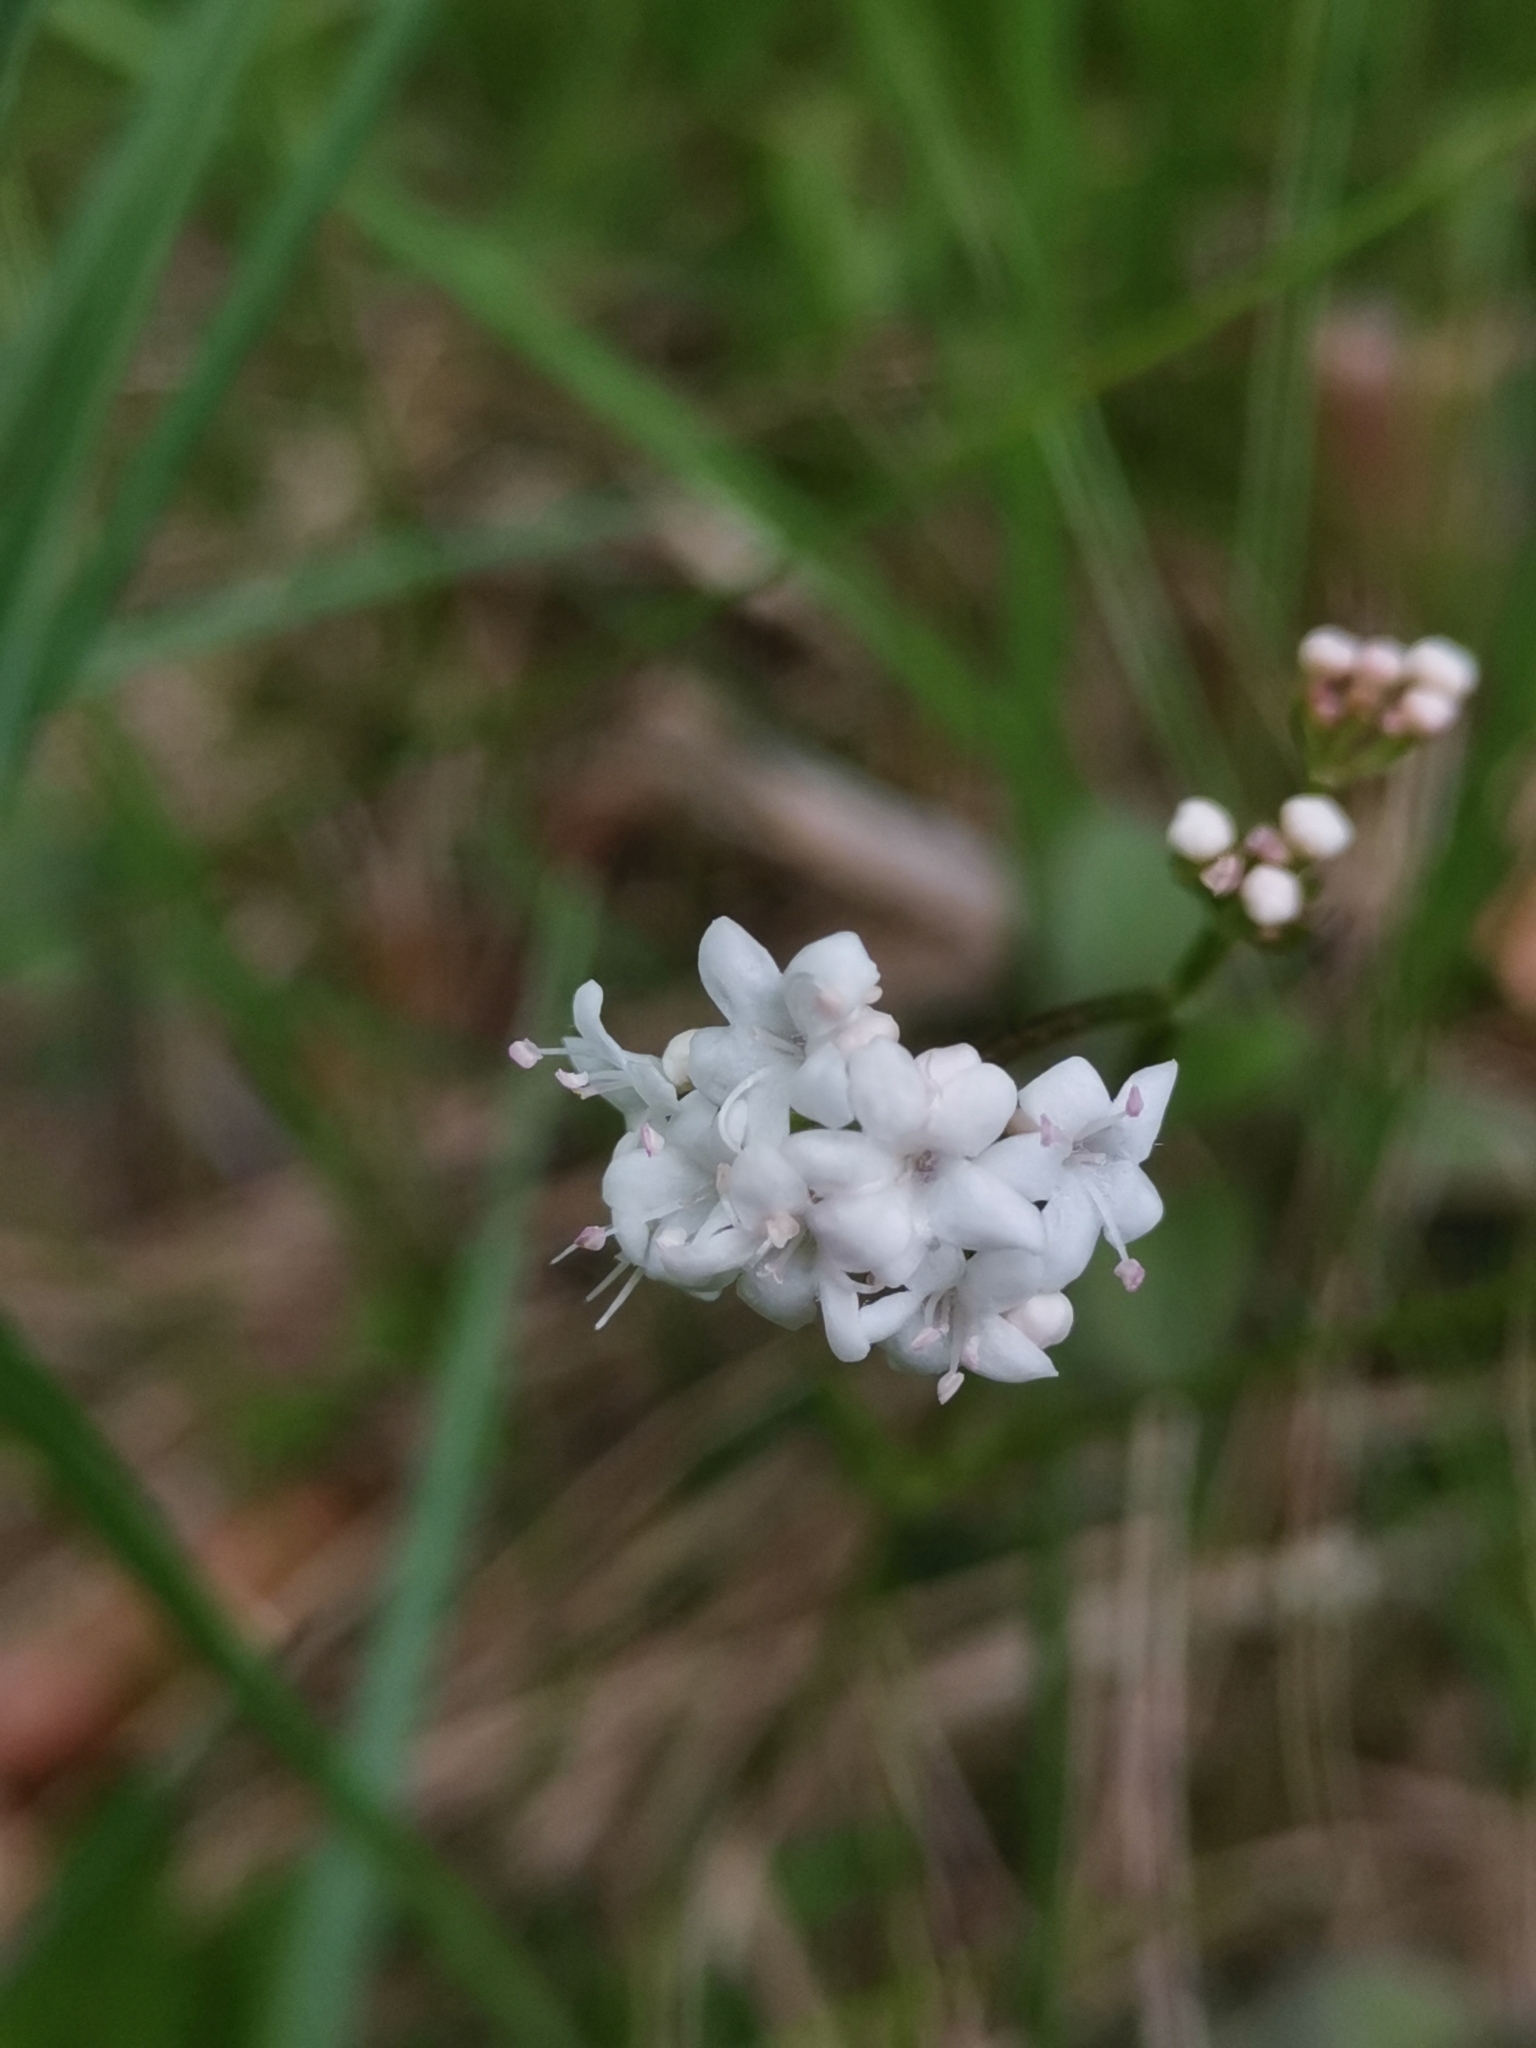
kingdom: Plantae
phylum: Tracheophyta
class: Magnoliopsida
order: Dipsacales
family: Caprifoliaceae
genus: Valeriana
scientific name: Valeriana dioica
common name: Marsh valerian
